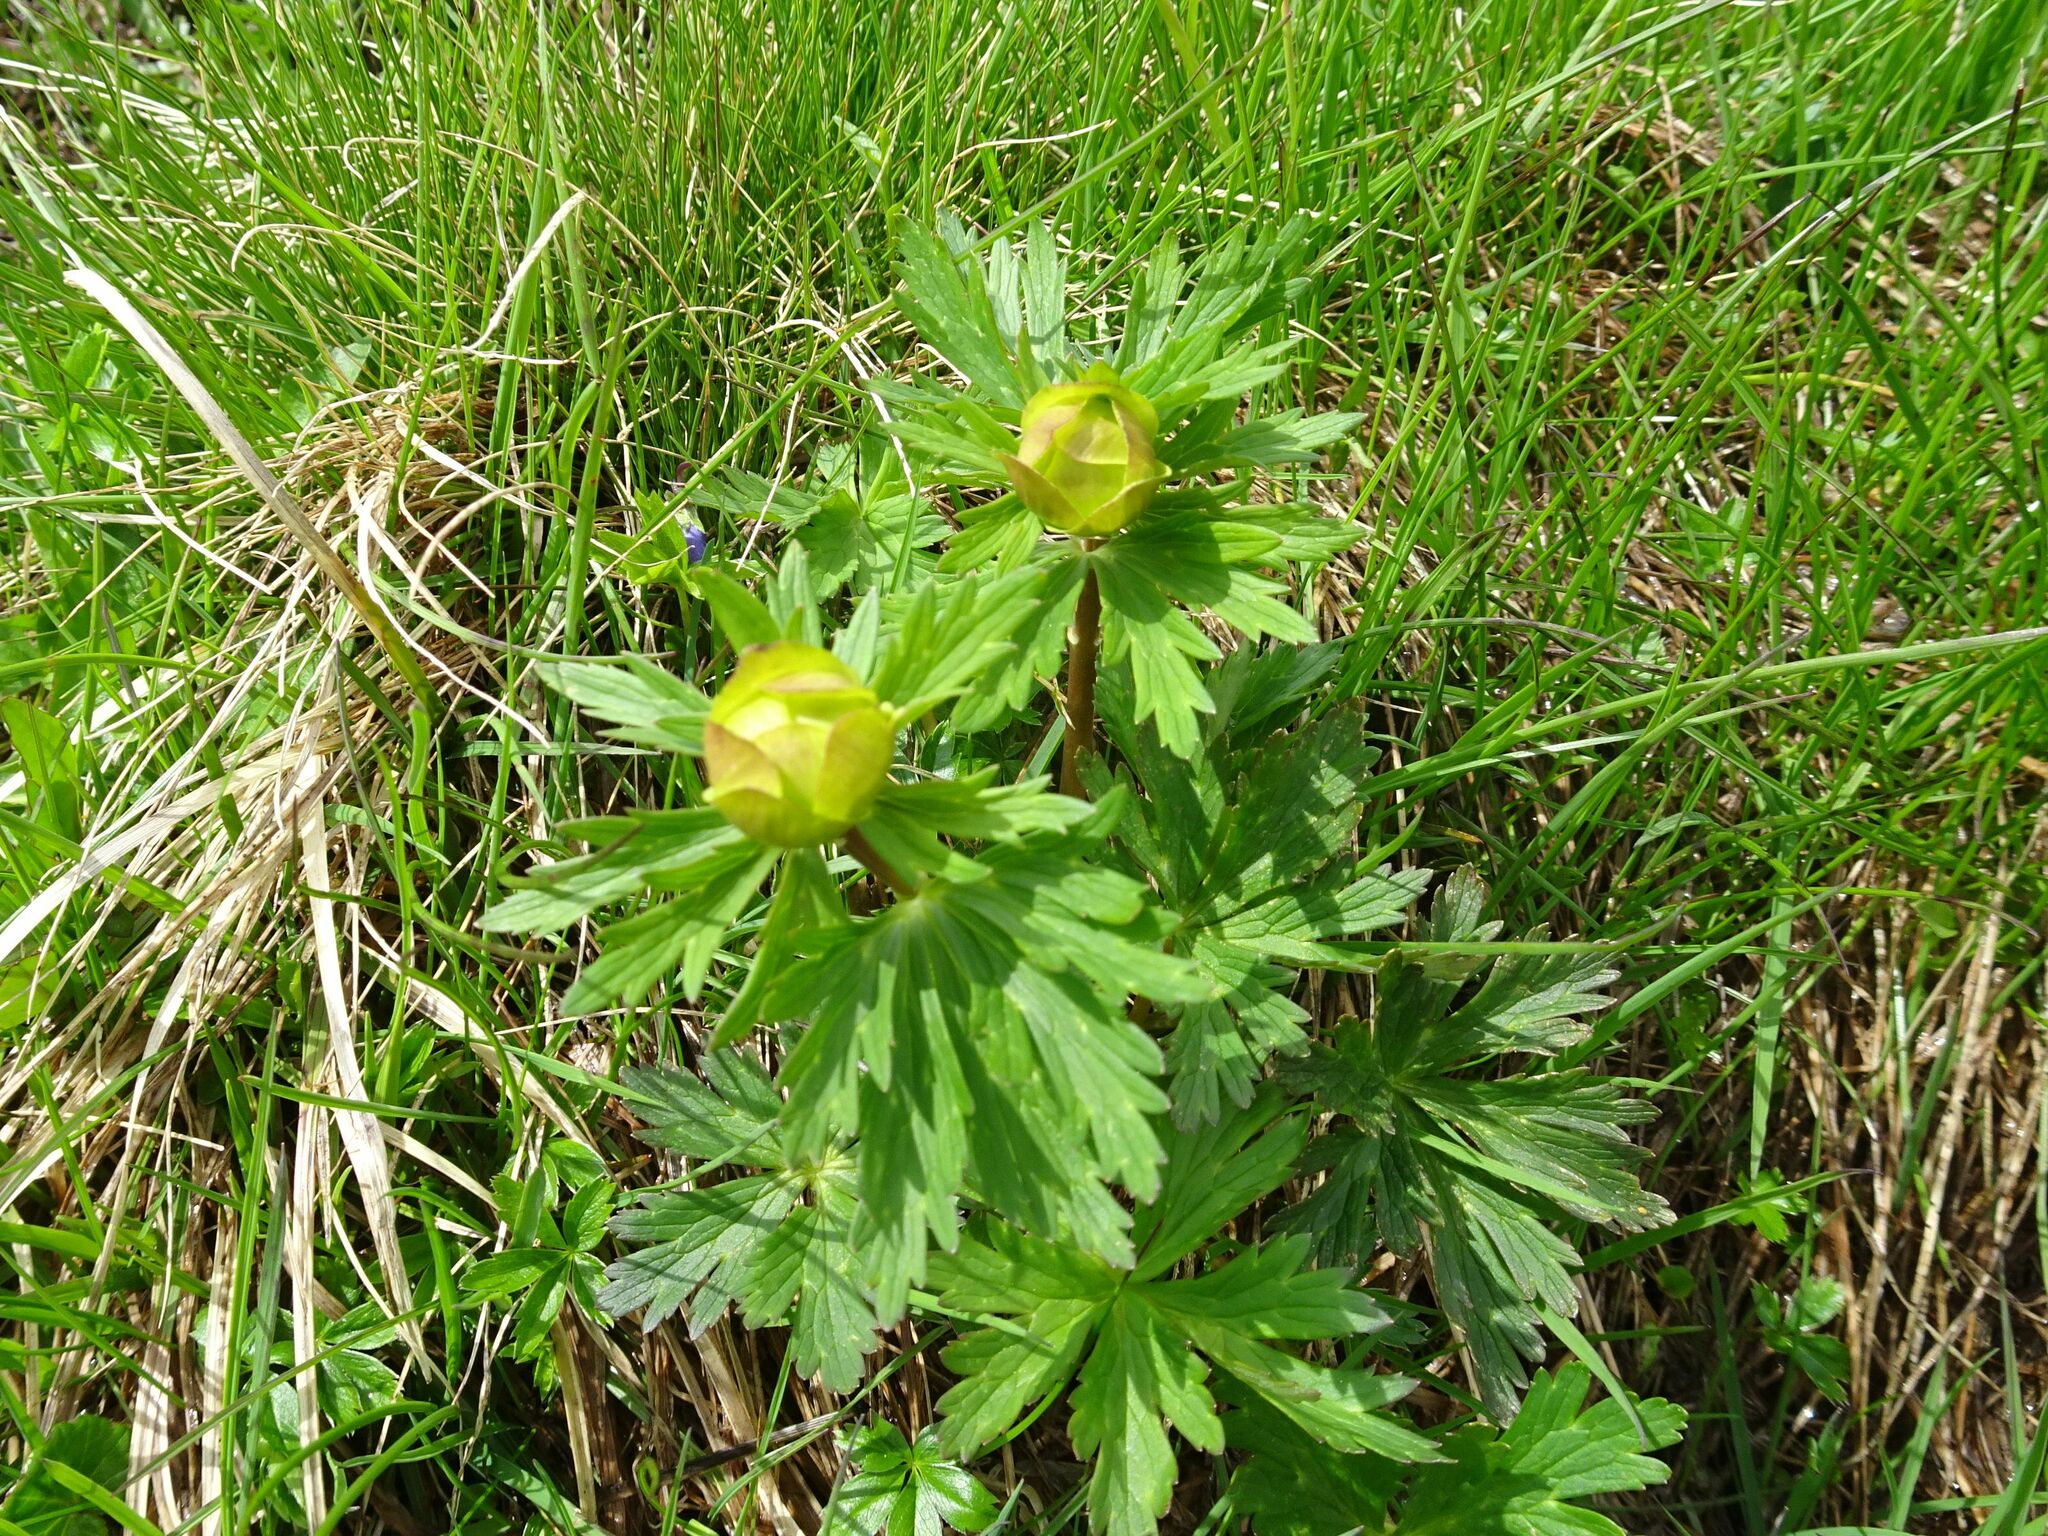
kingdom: Plantae
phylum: Tracheophyta
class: Magnoliopsida
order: Ranunculales
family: Ranunculaceae
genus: Trollius
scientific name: Trollius europaeus
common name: European globeflower
